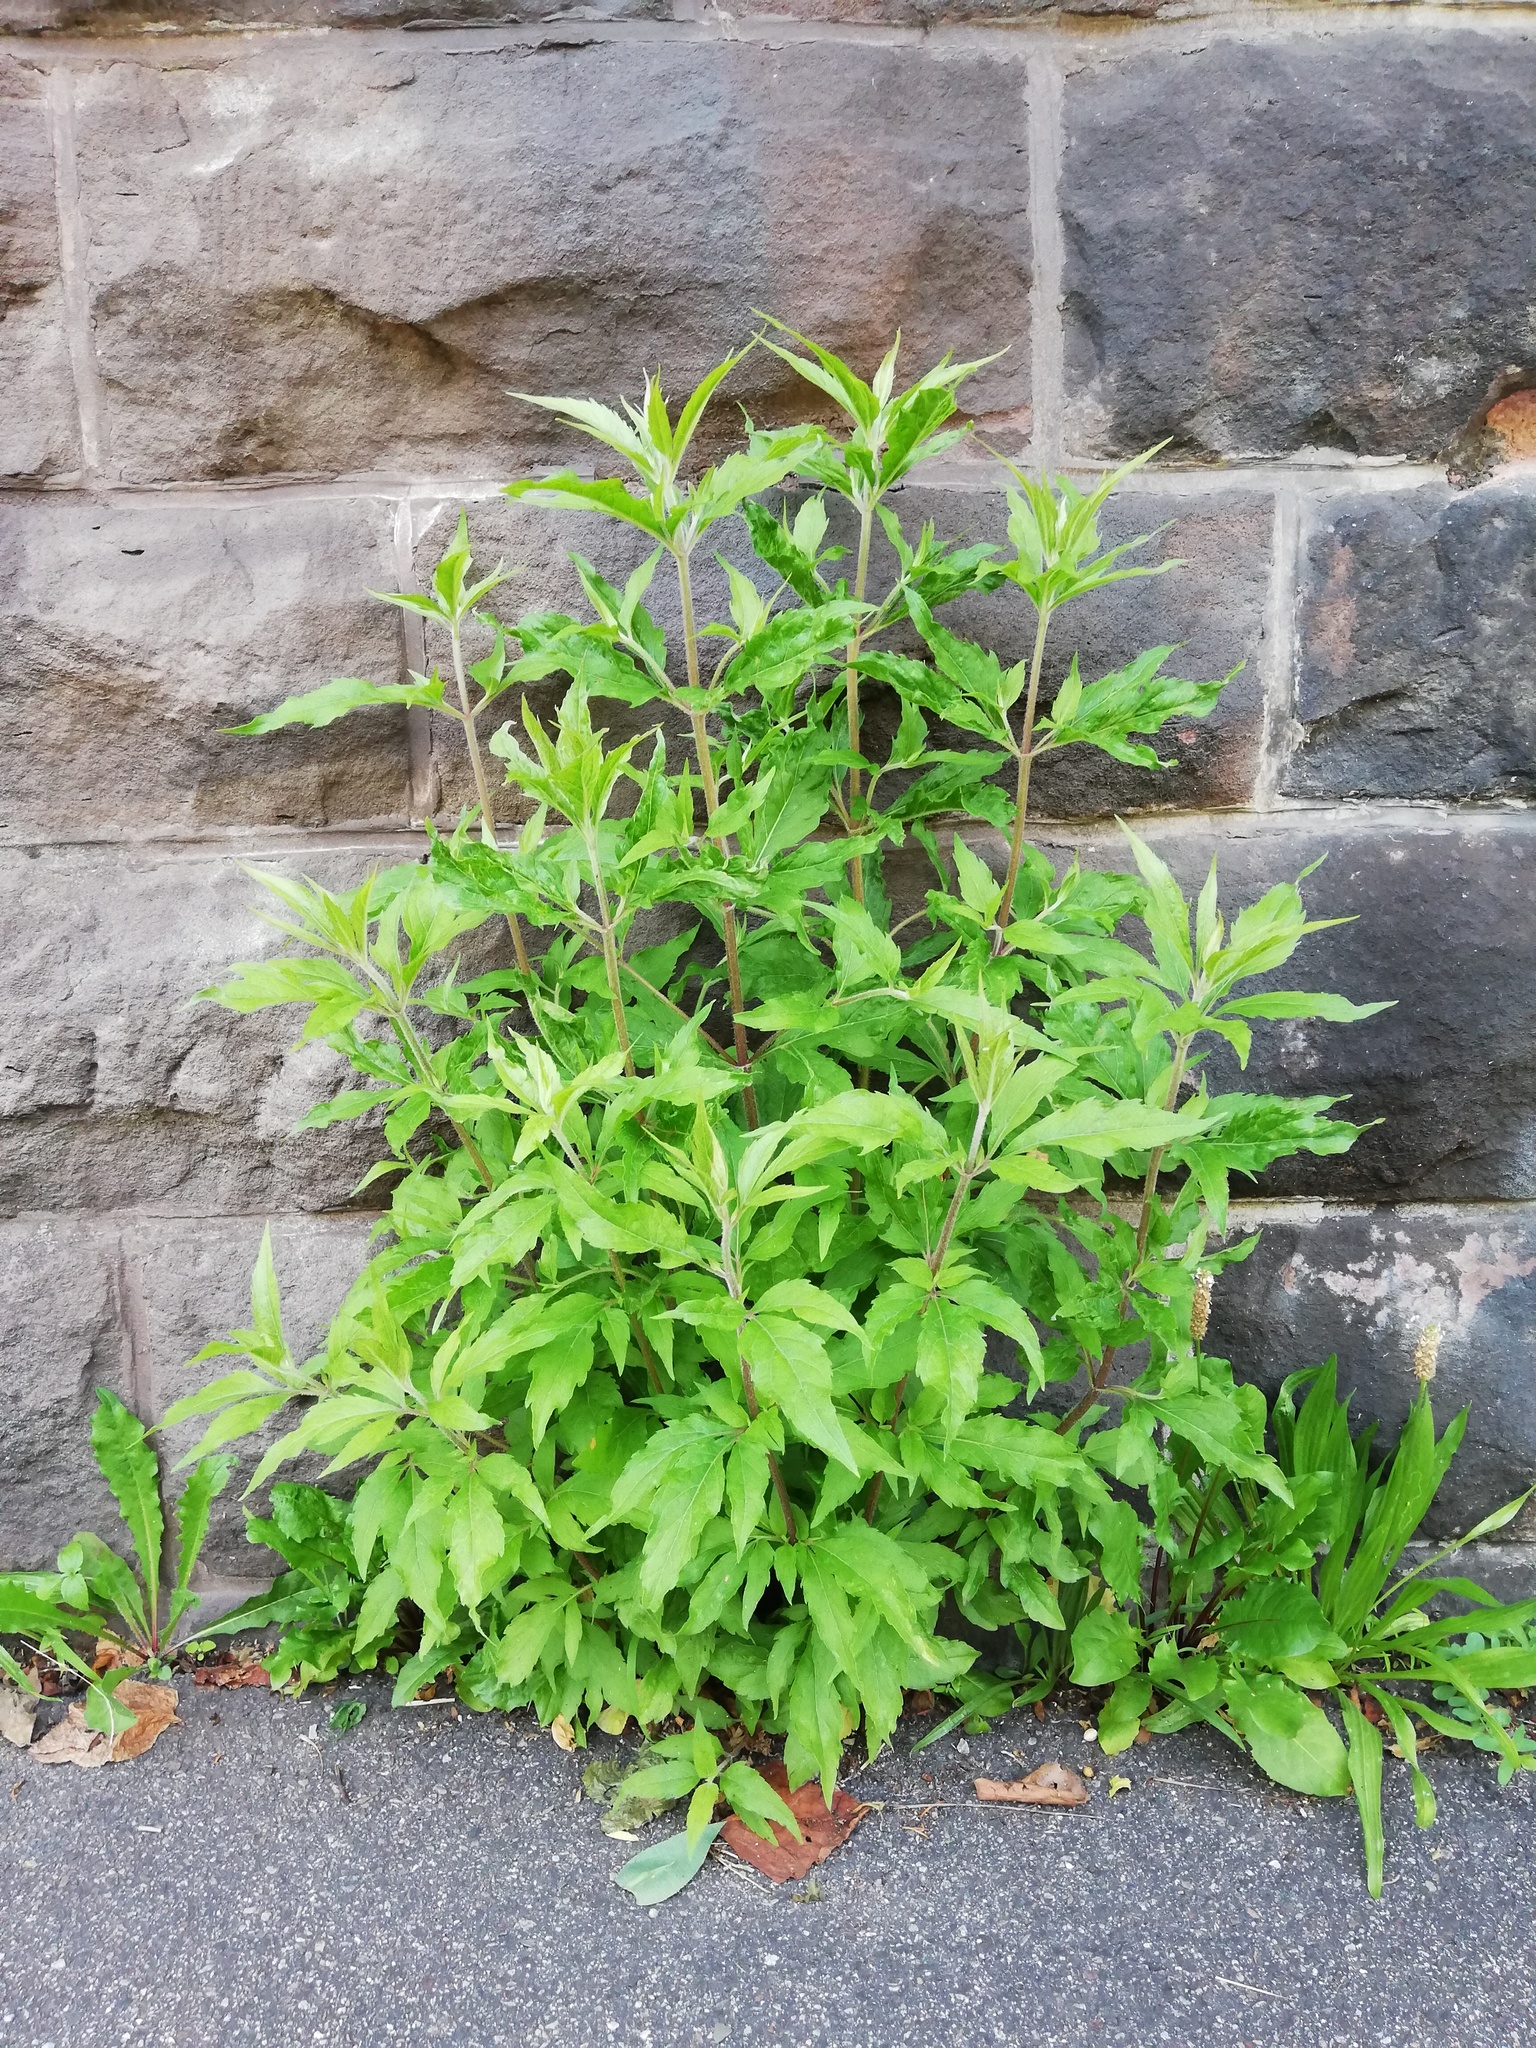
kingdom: Plantae
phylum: Tracheophyta
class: Magnoliopsida
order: Asterales
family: Asteraceae
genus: Eupatorium
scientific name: Eupatorium cannabinum
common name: Hemp-agrimony
